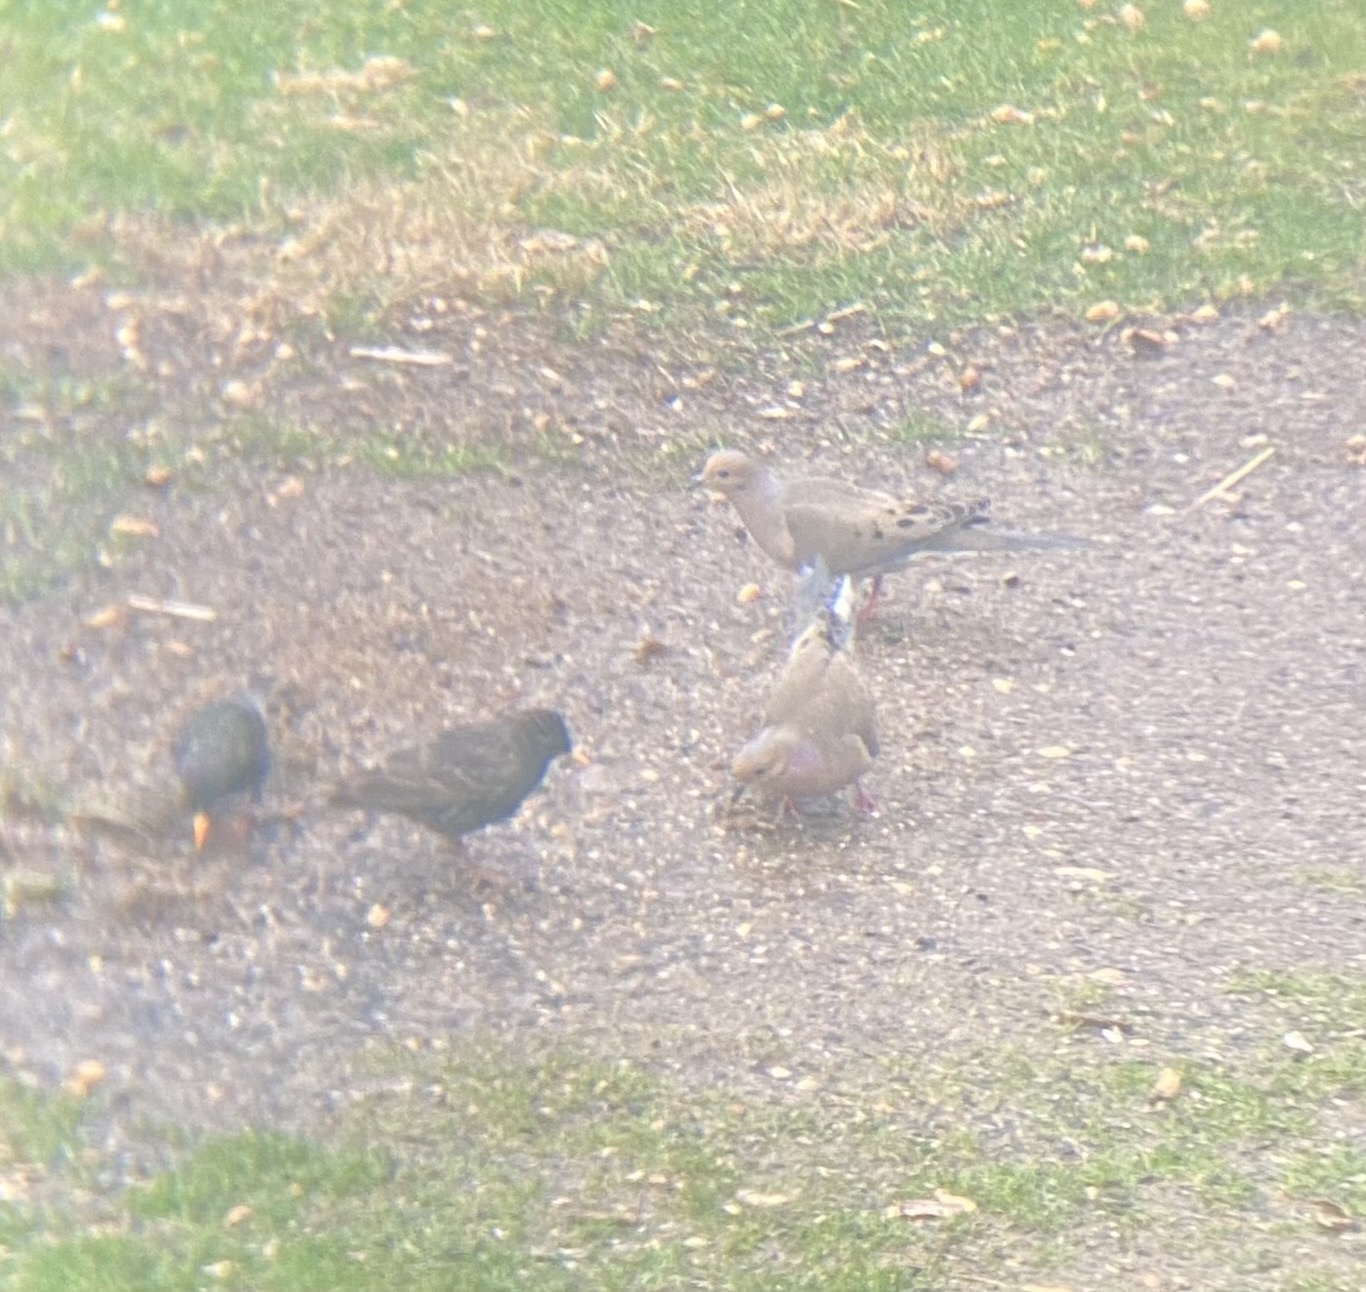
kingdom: Animalia
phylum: Chordata
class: Aves
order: Columbiformes
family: Columbidae
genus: Zenaida
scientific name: Zenaida macroura
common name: Mourning dove
